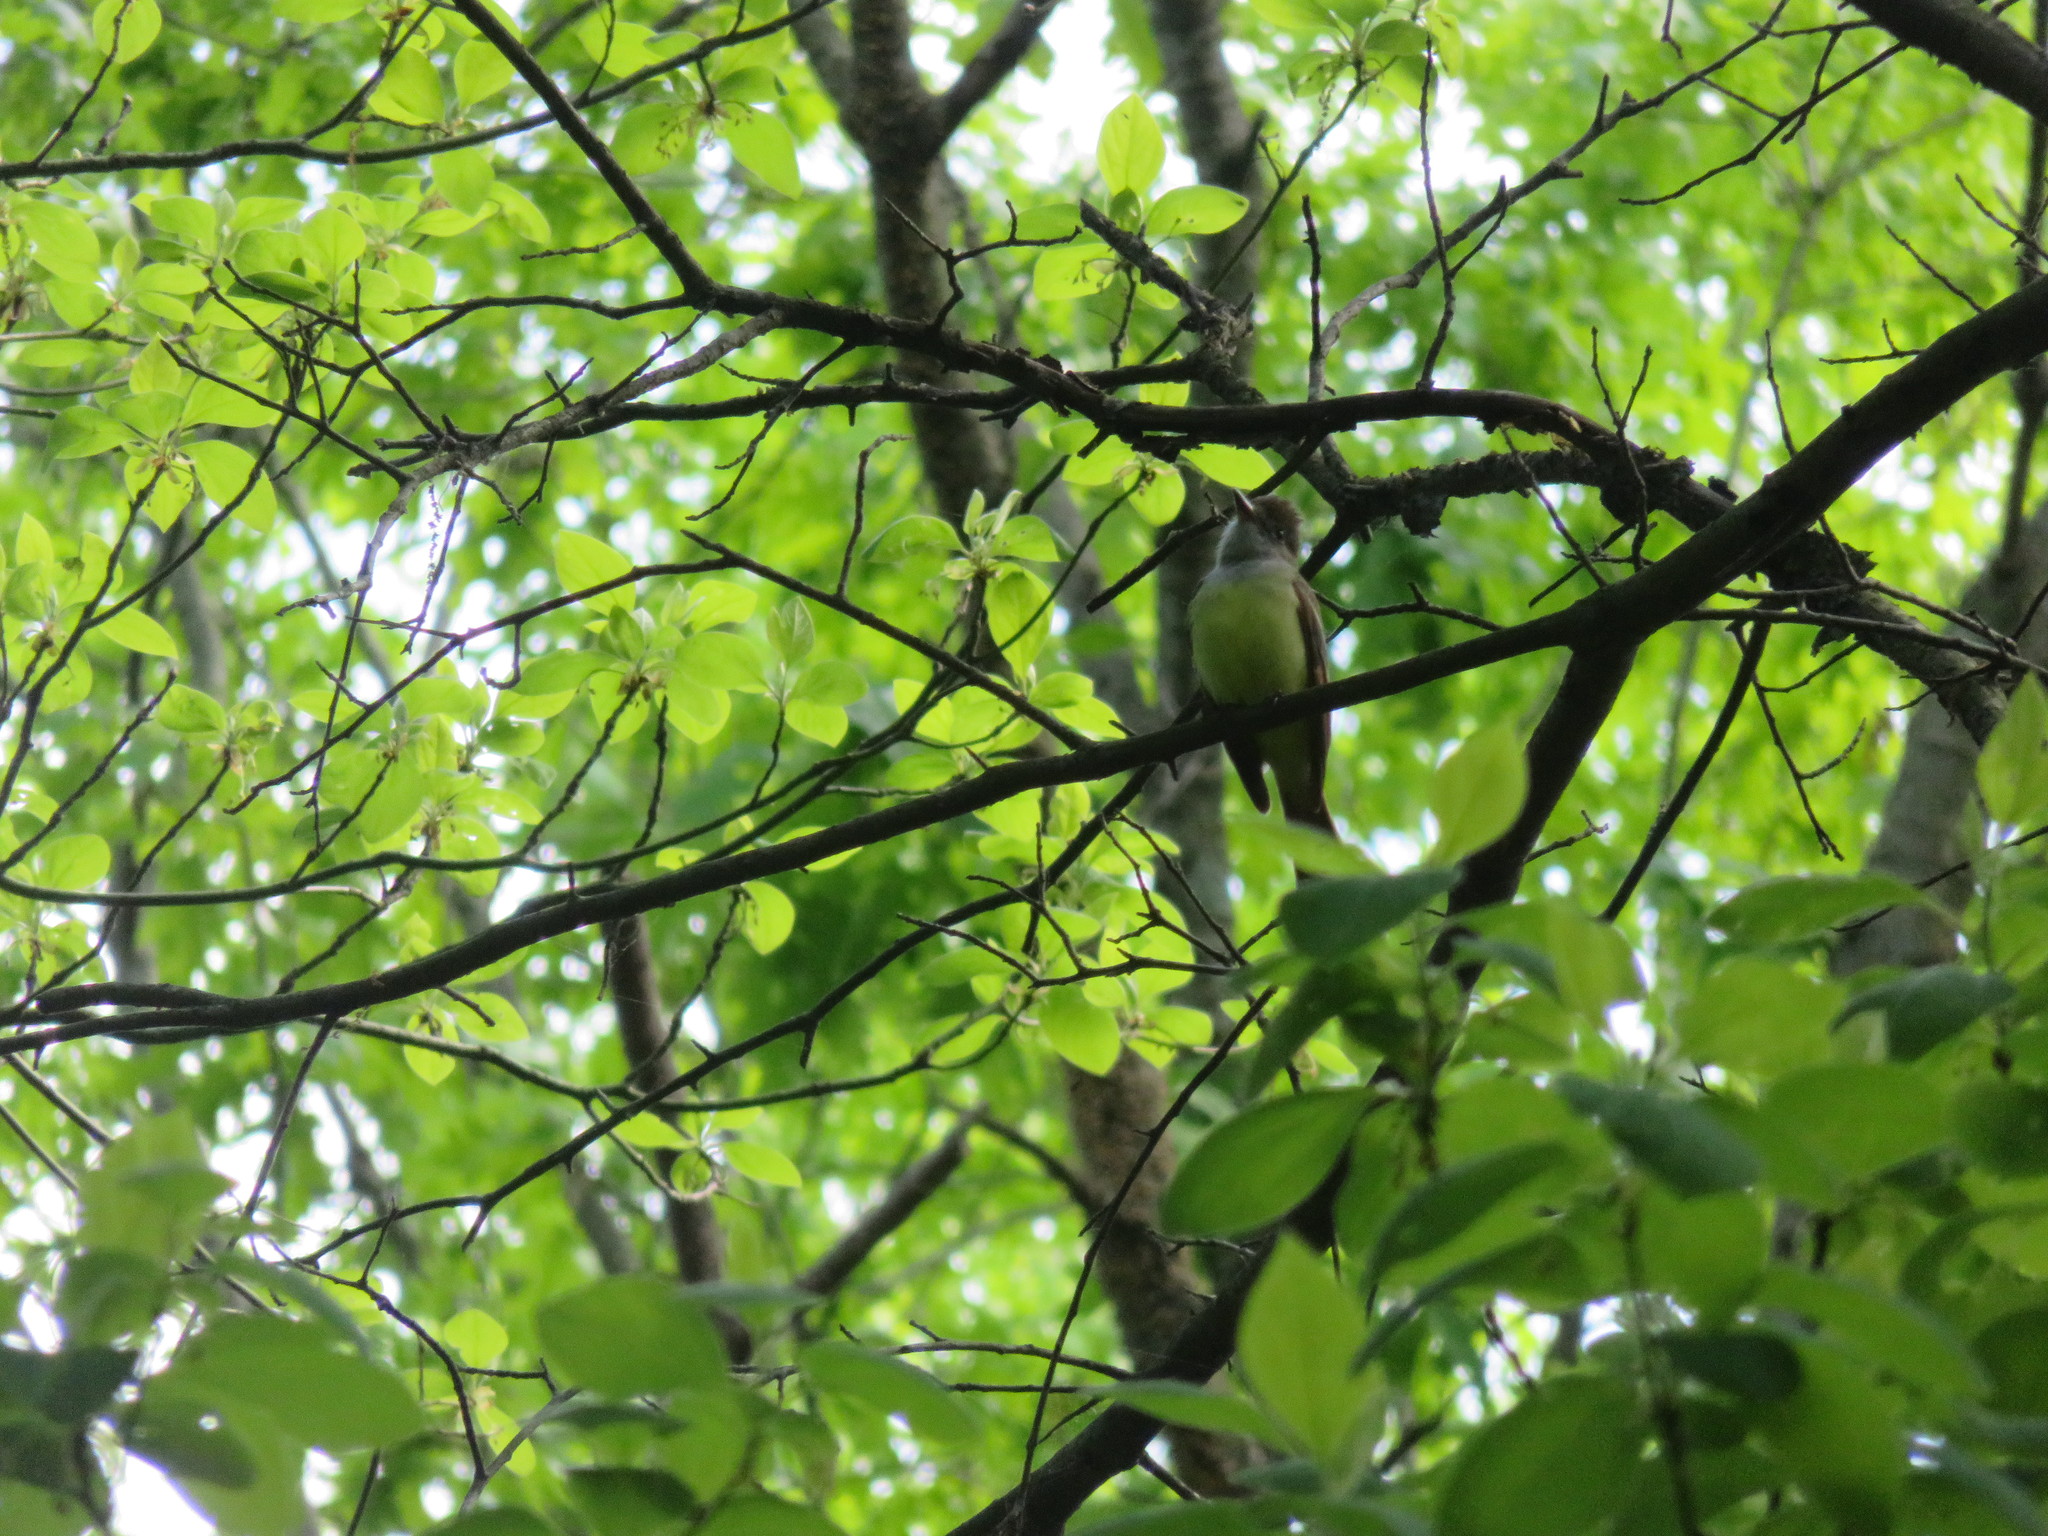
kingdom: Animalia
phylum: Chordata
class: Aves
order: Passeriformes
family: Tyrannidae
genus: Myiarchus
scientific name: Myiarchus crinitus
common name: Great crested flycatcher
